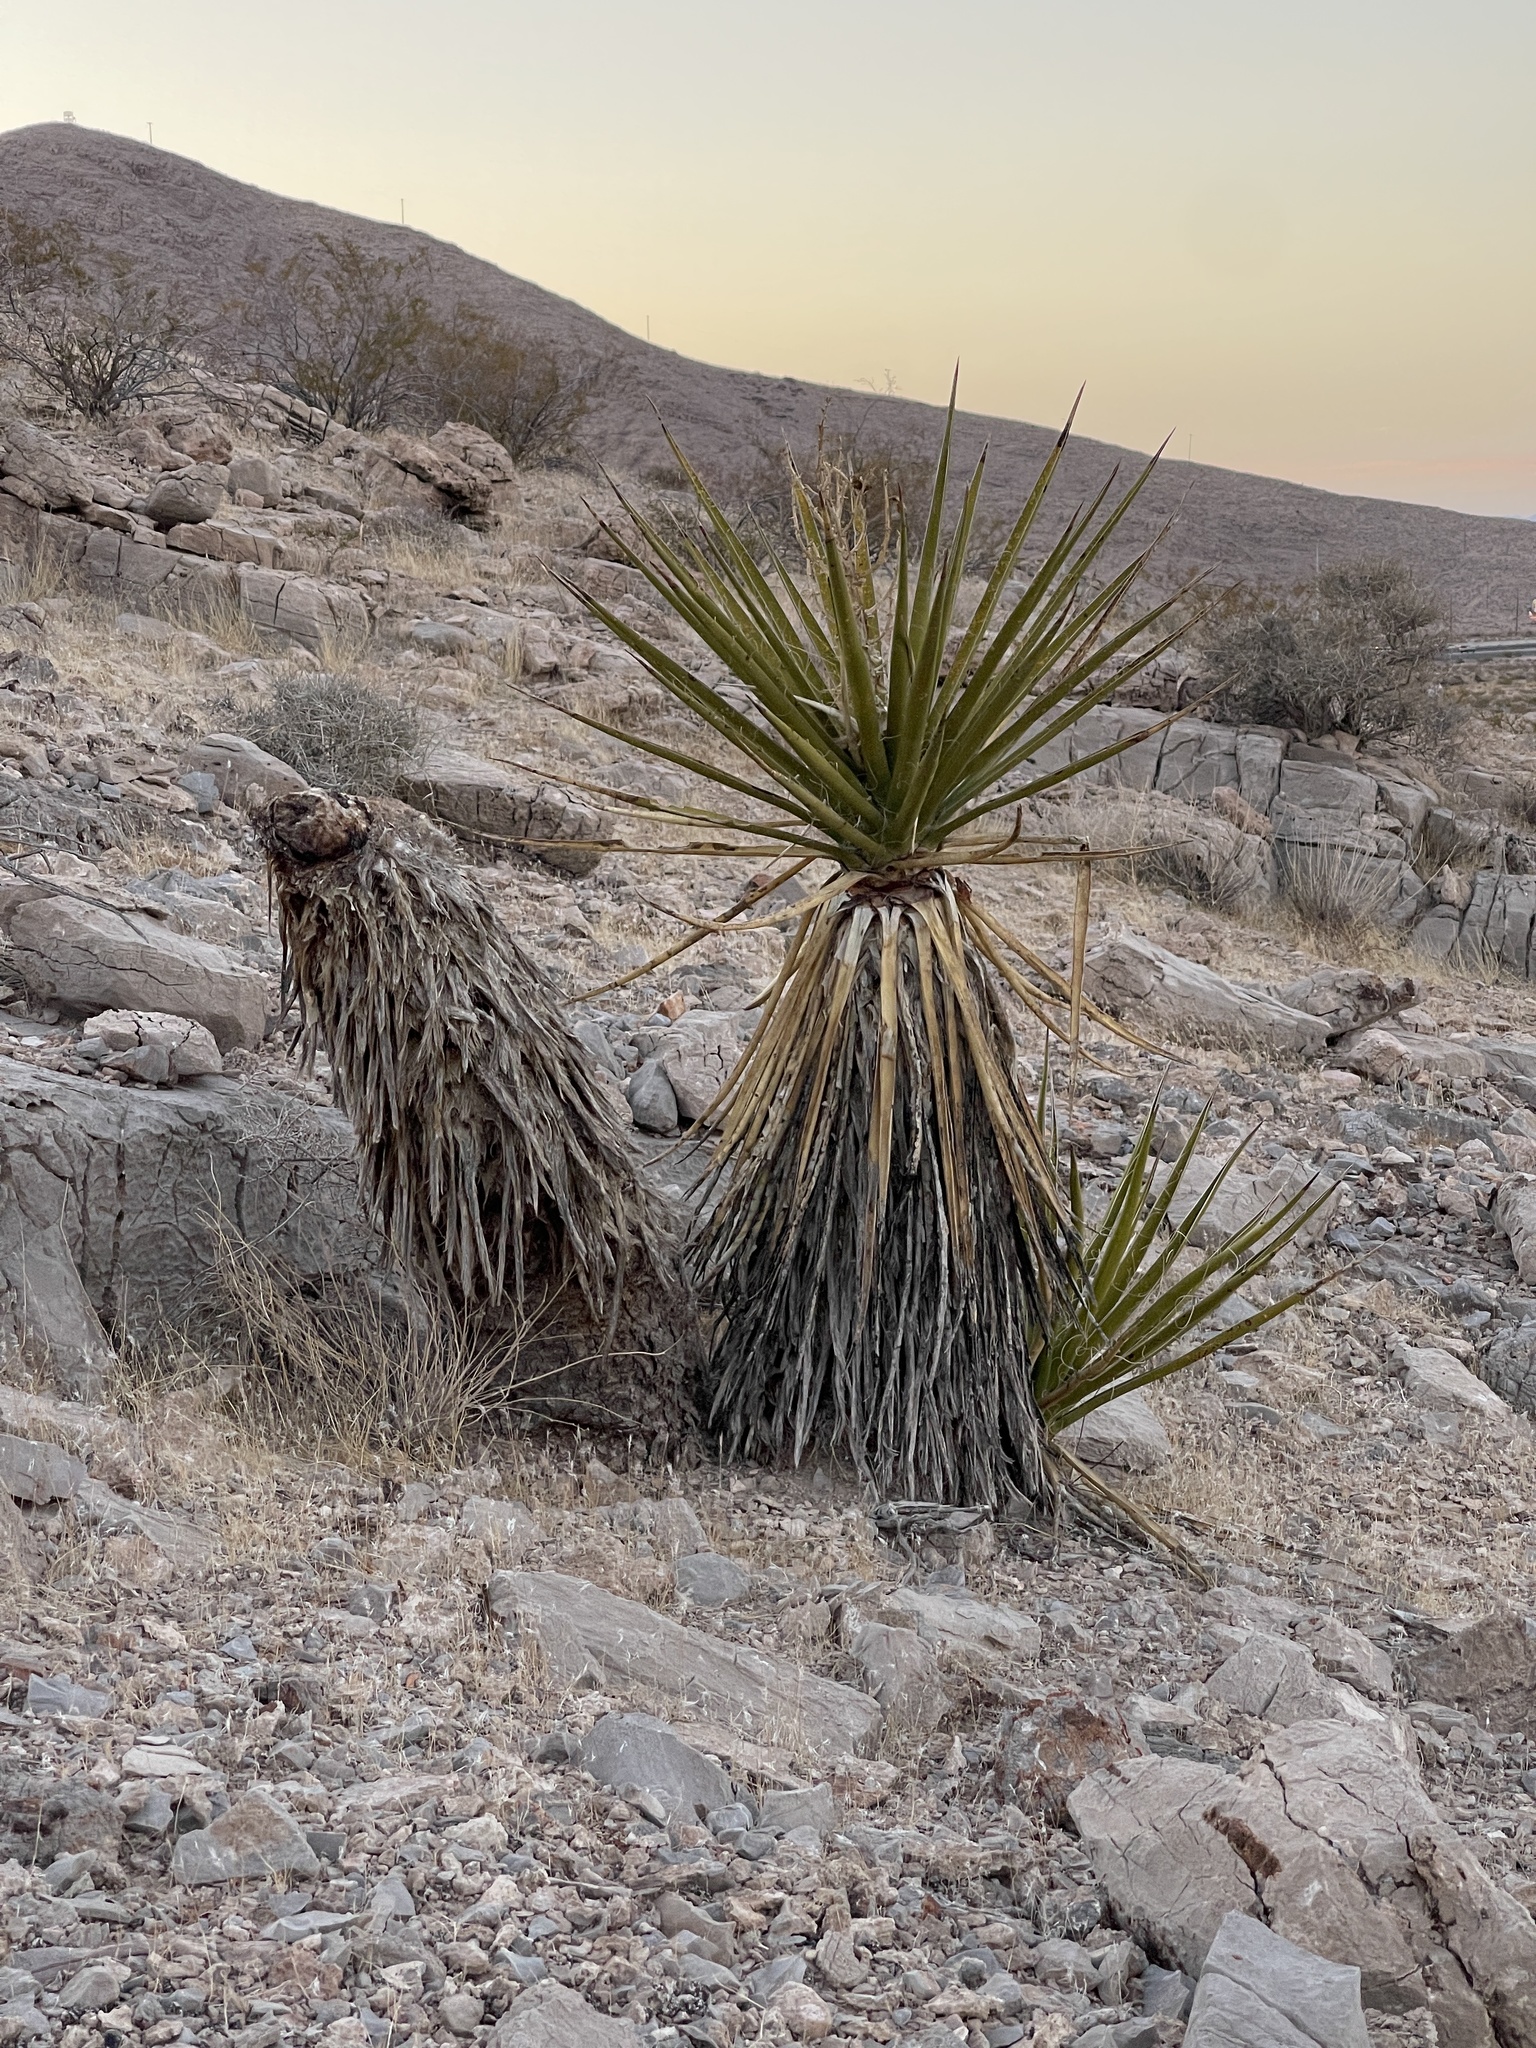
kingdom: Plantae
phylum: Tracheophyta
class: Liliopsida
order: Asparagales
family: Asparagaceae
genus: Yucca
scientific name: Yucca schidigera
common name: Mojave yucca
